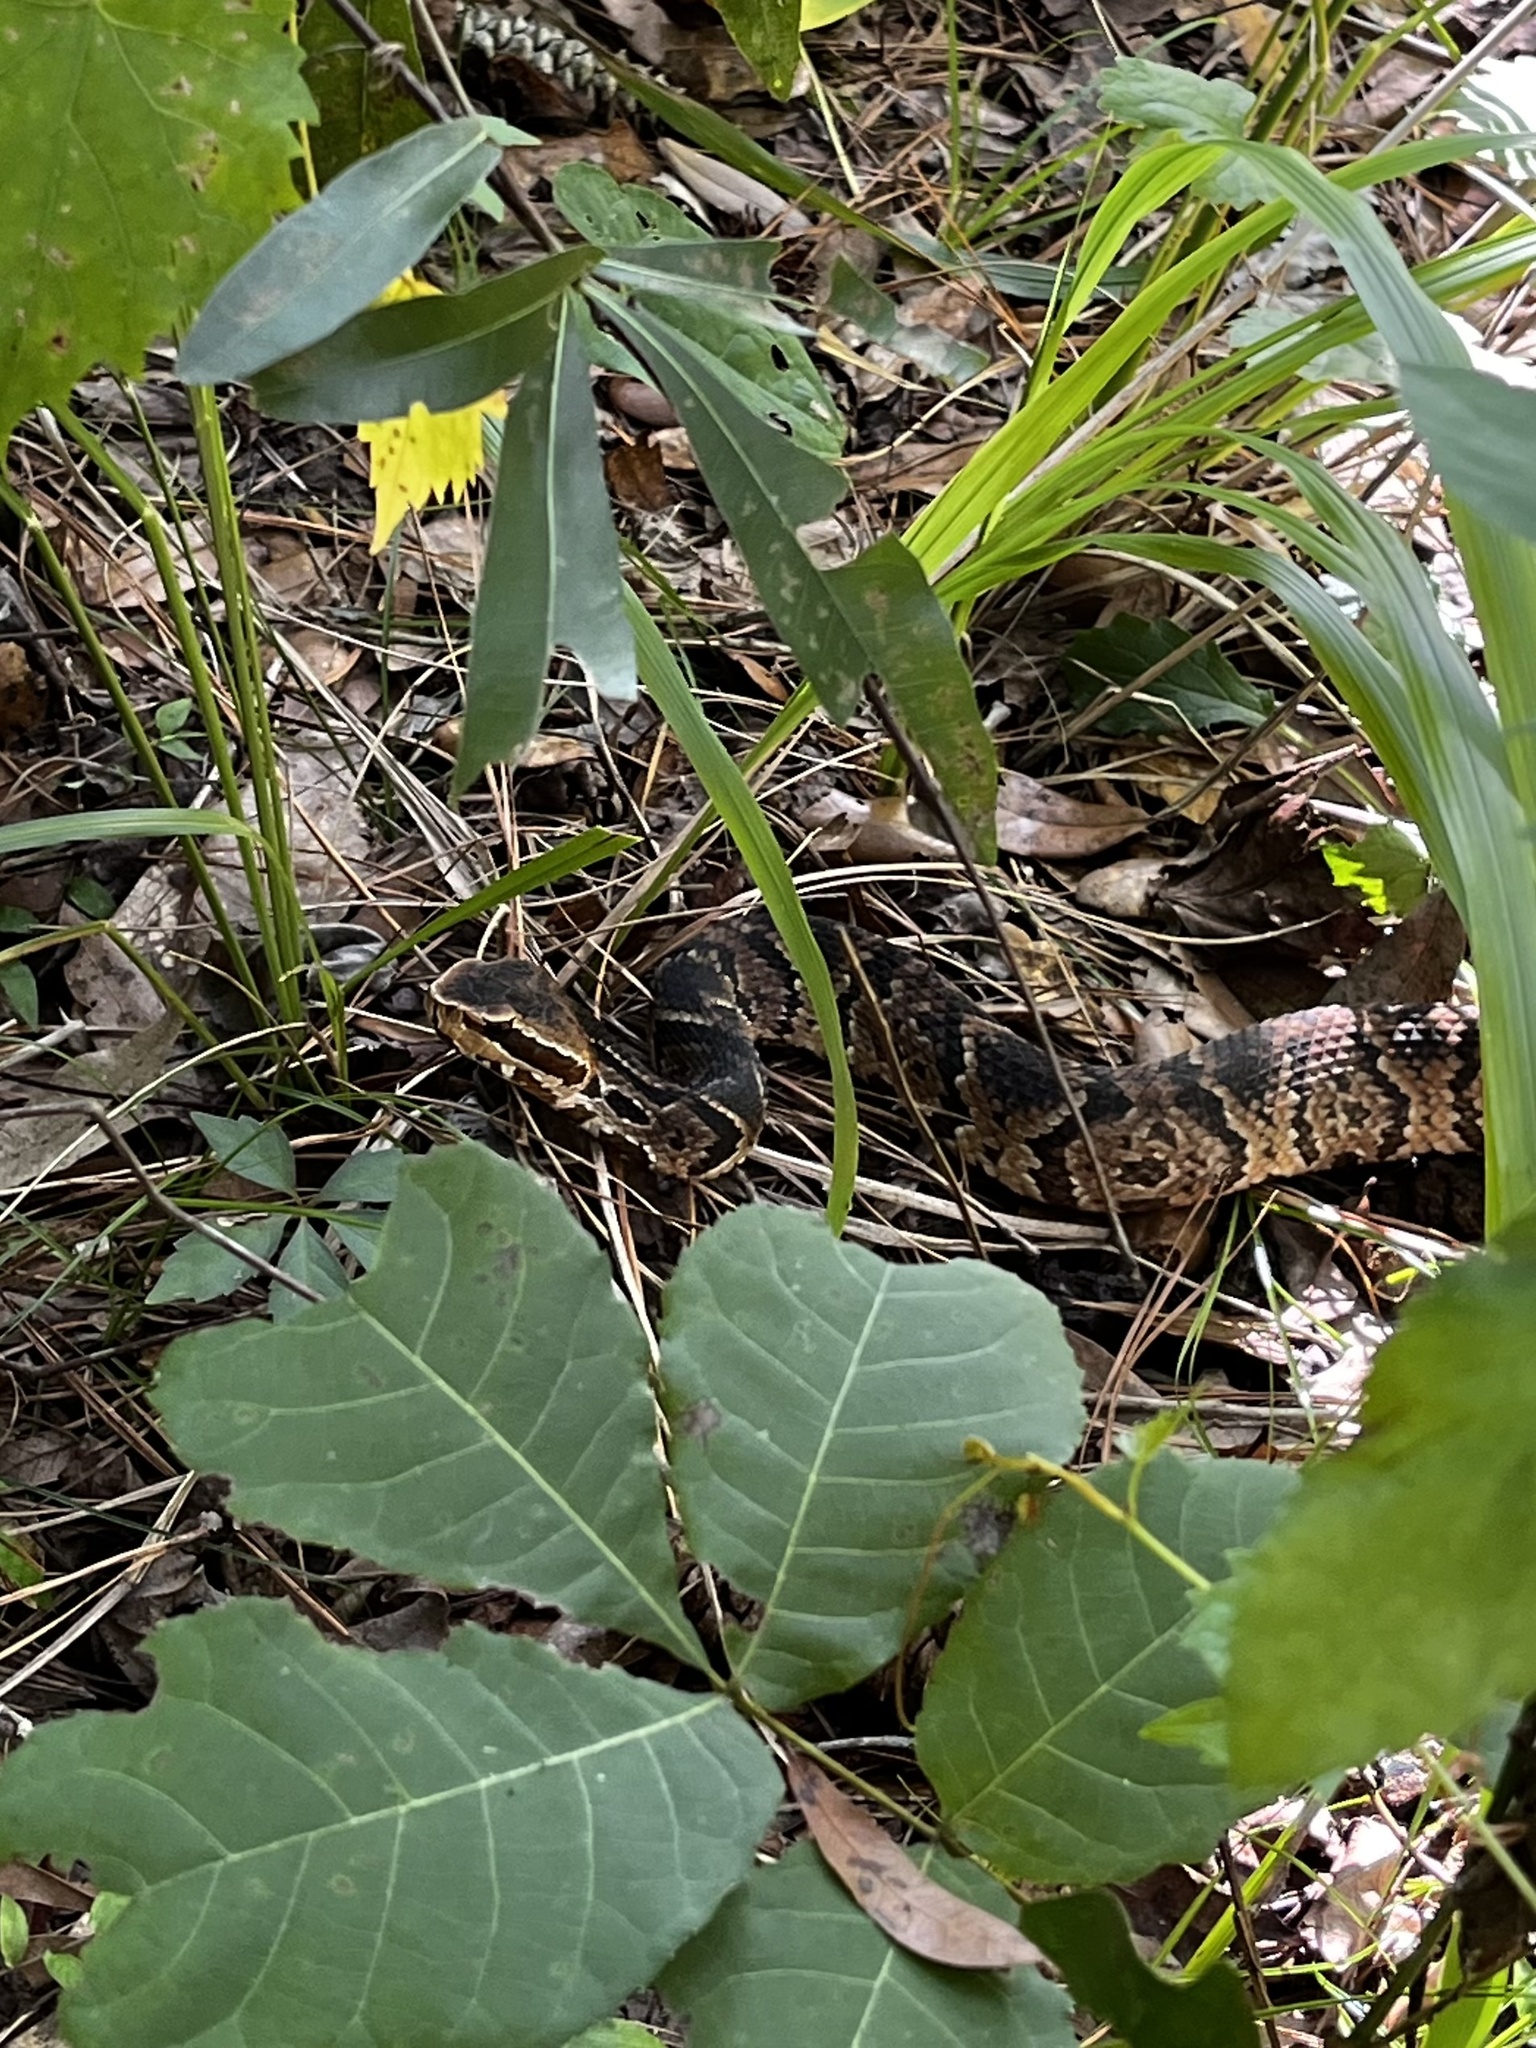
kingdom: Animalia
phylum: Chordata
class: Squamata
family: Viperidae
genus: Agkistrodon
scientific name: Agkistrodon conanti
